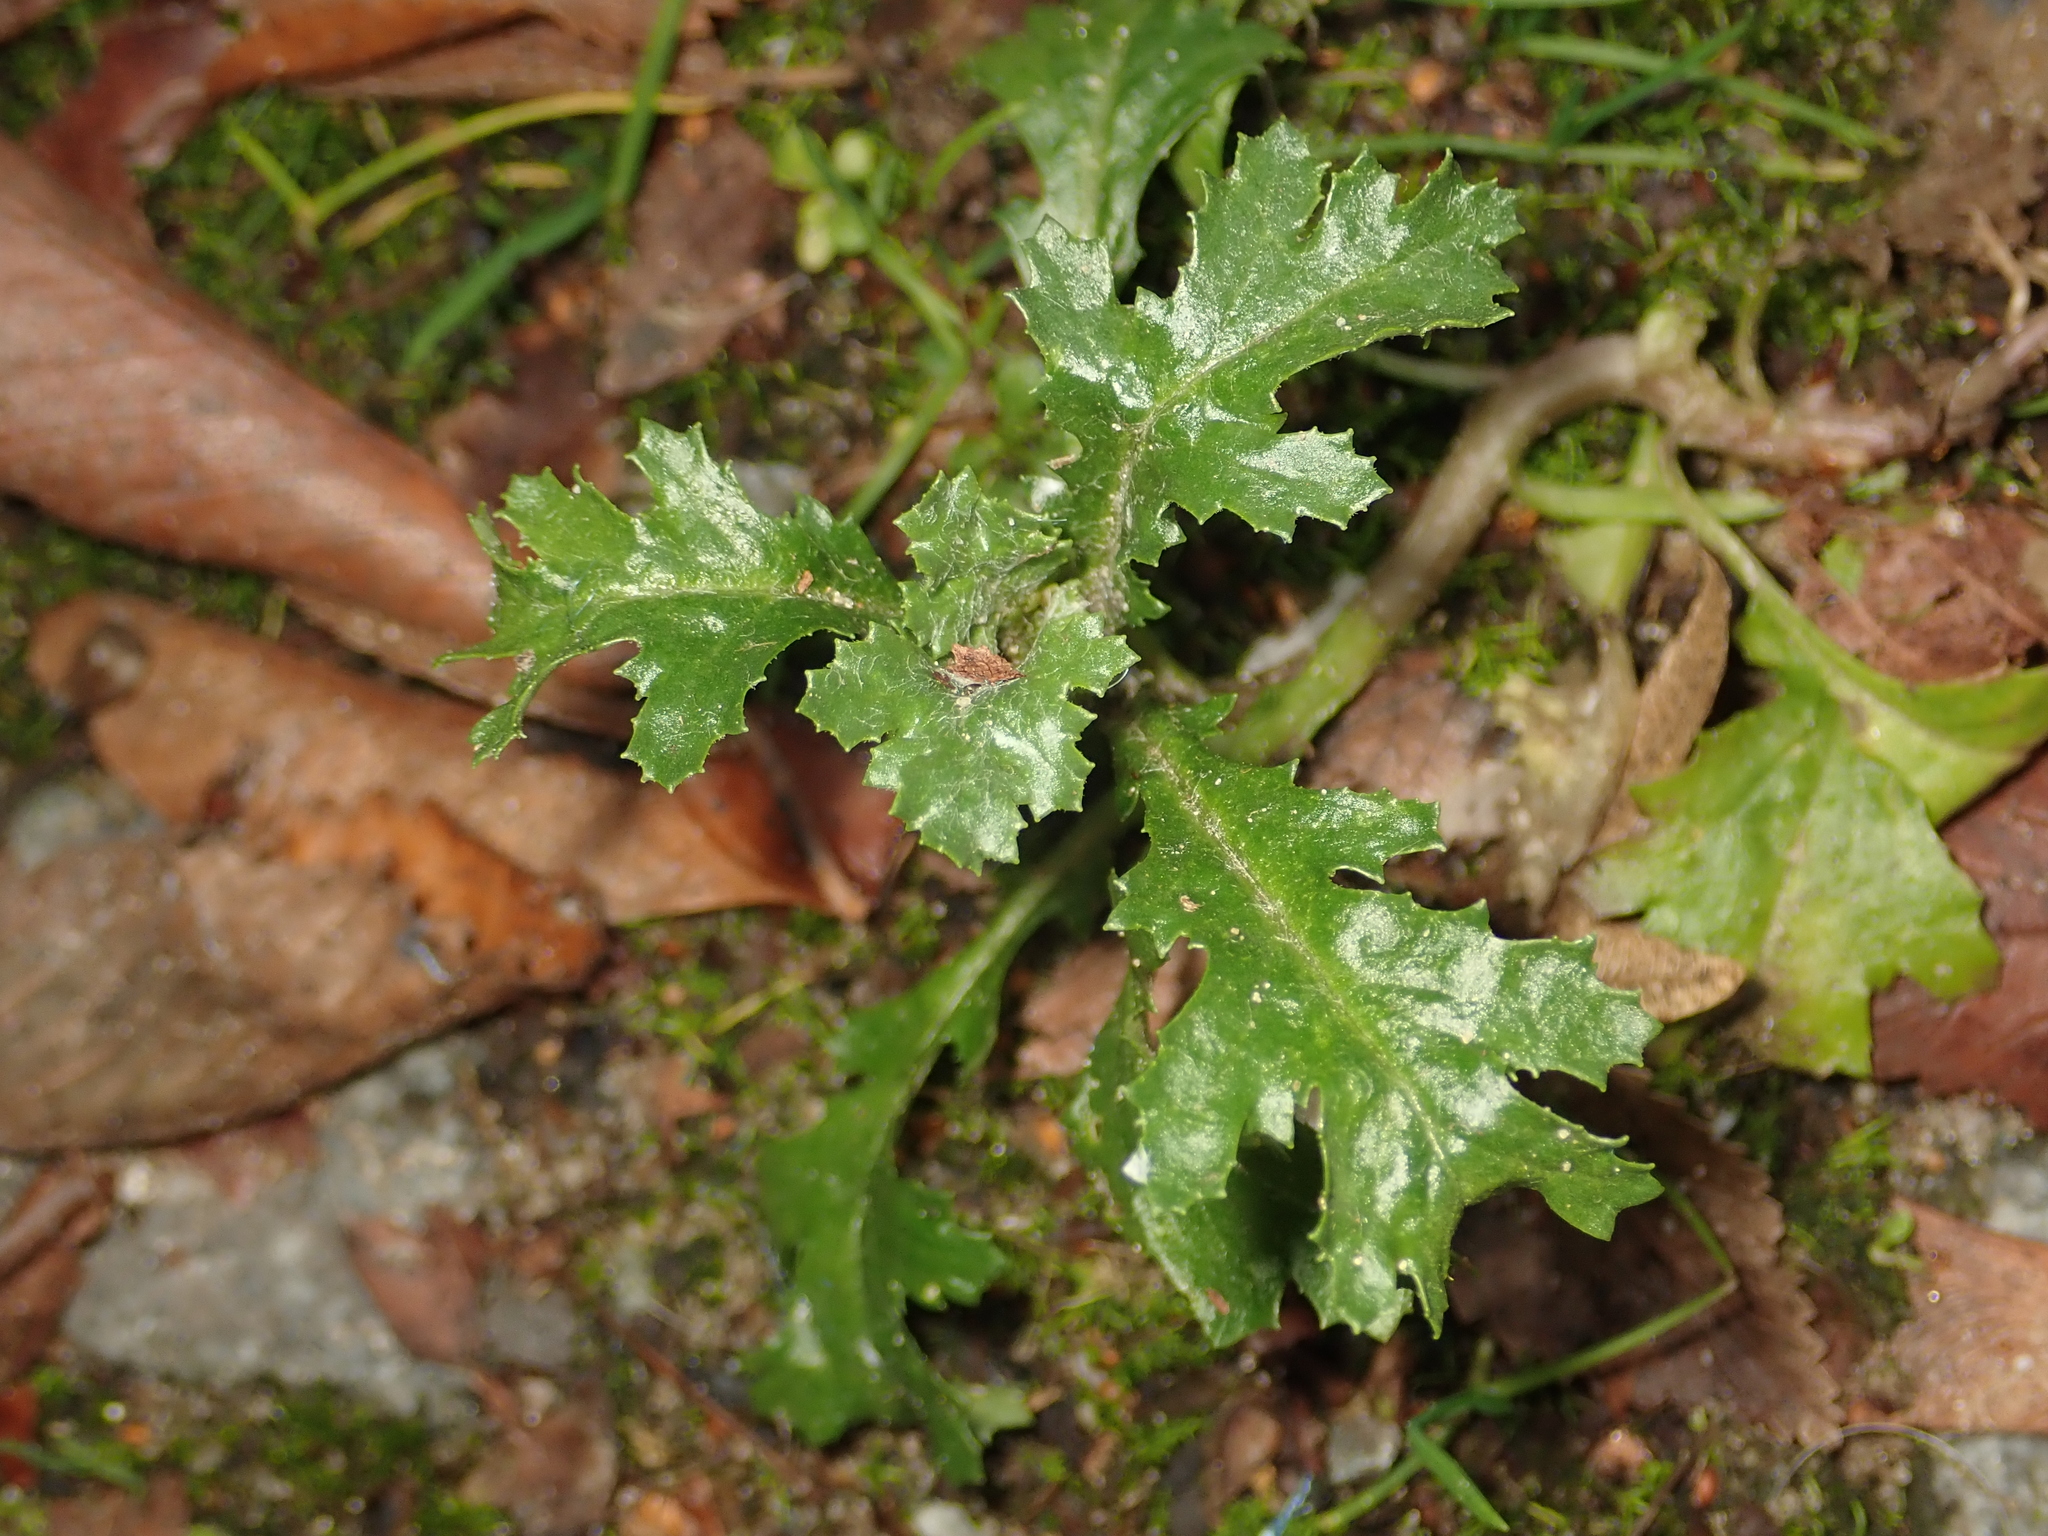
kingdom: Plantae
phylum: Tracheophyta
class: Magnoliopsida
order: Asterales
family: Asteraceae
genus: Senecio
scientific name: Senecio vulgaris
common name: Old-man-in-the-spring
